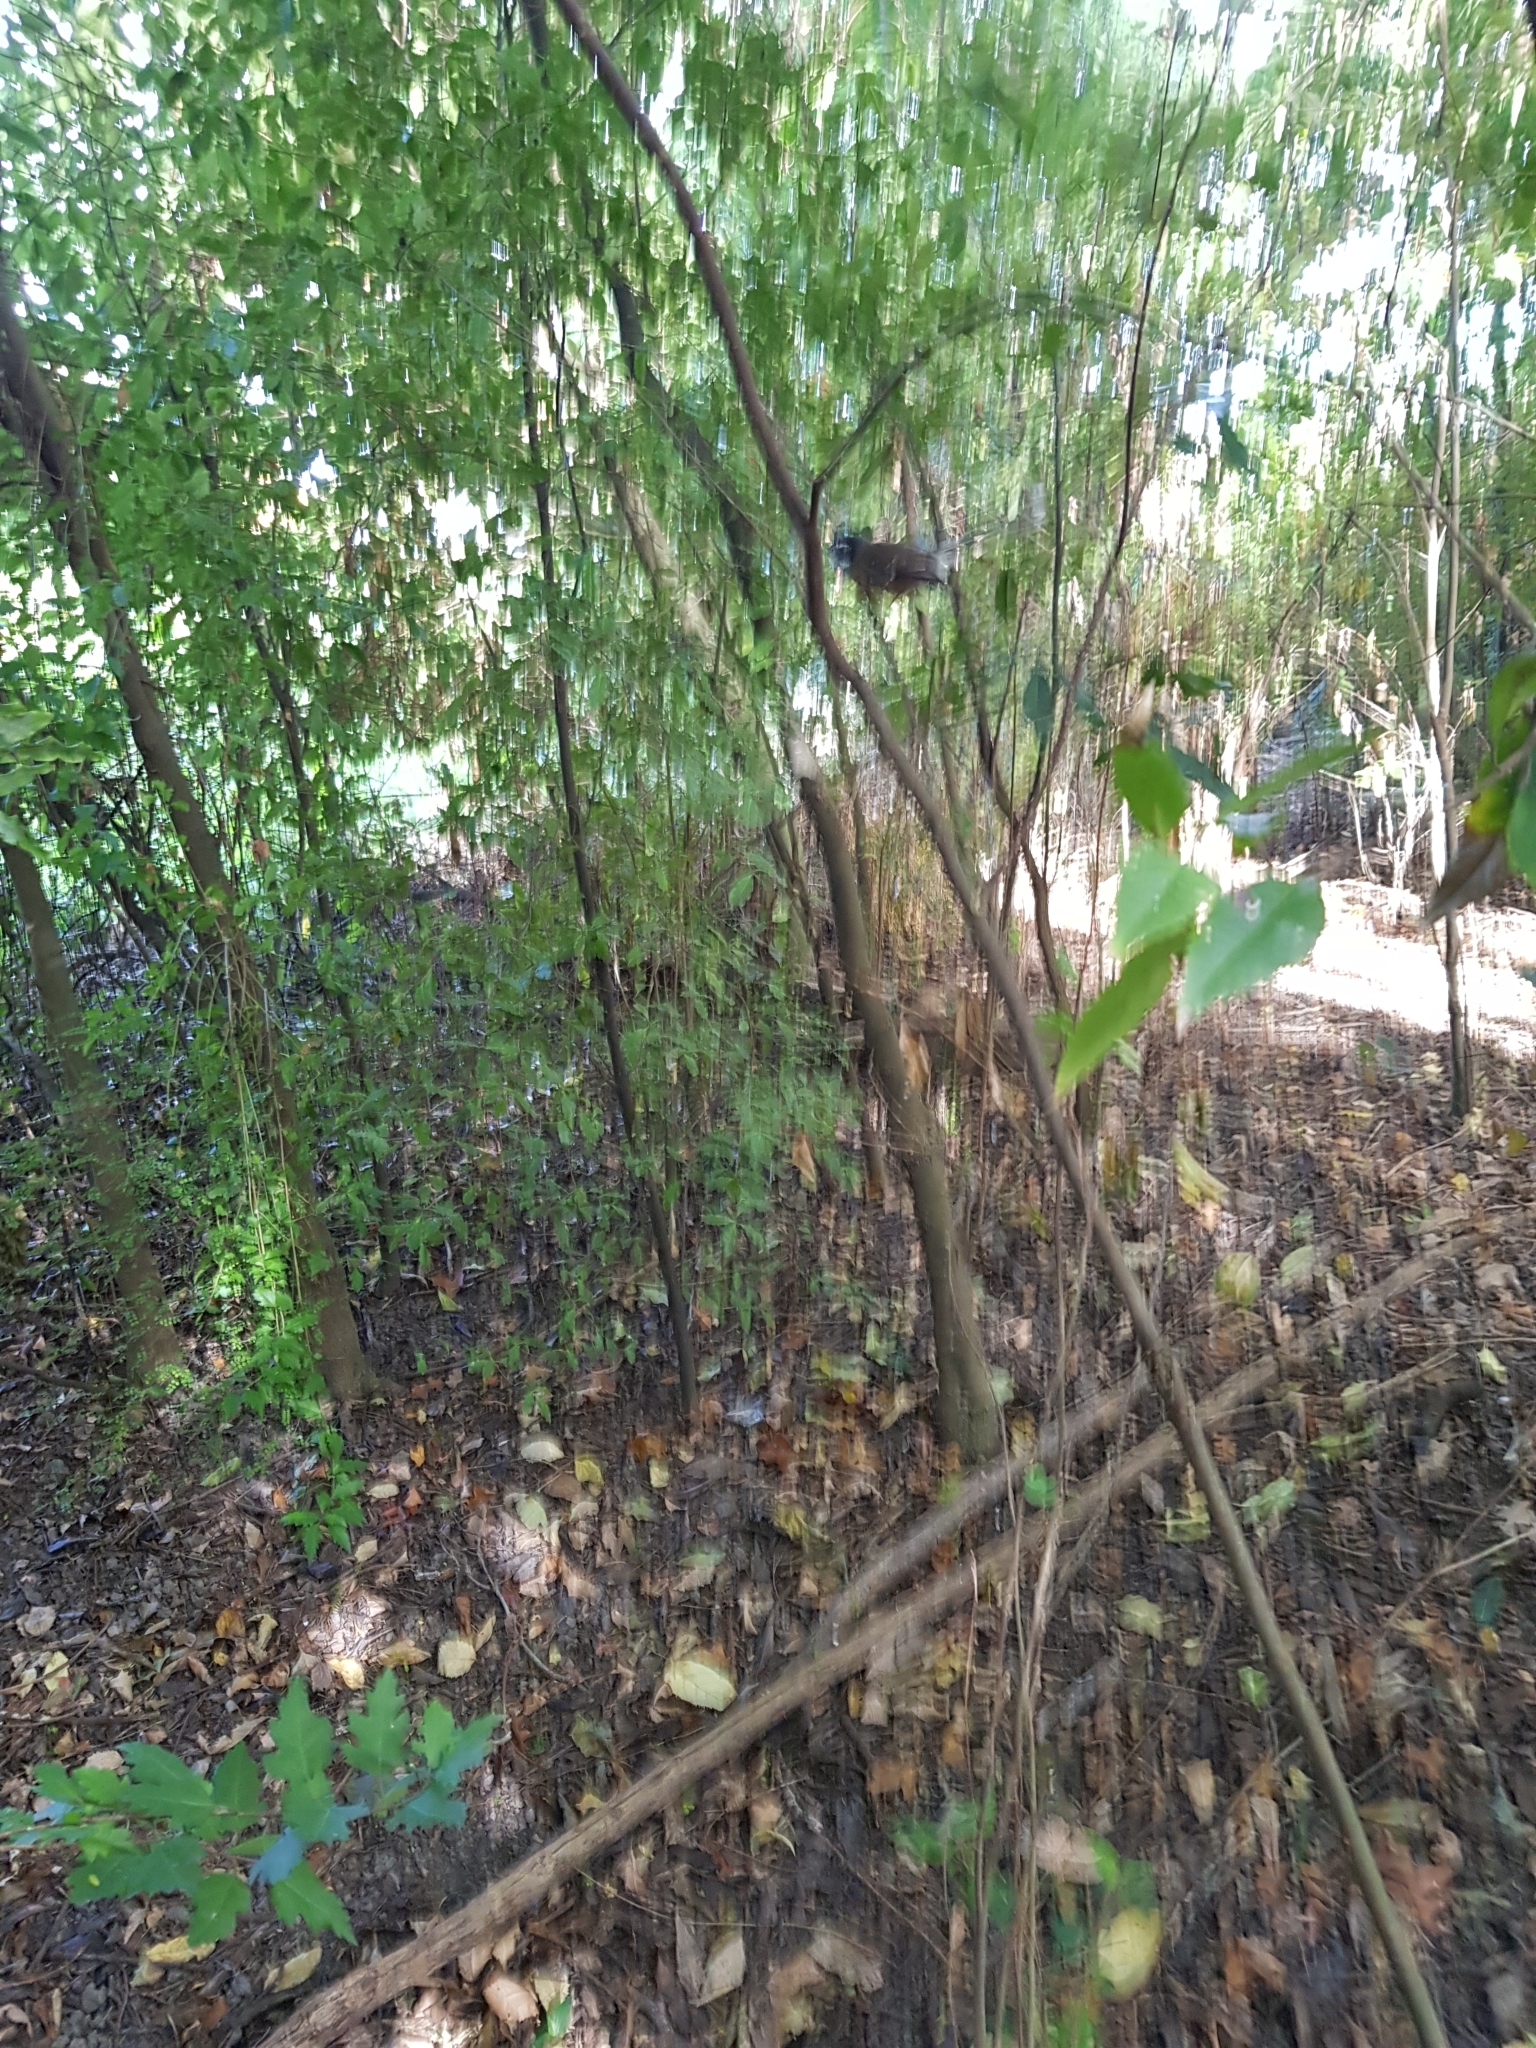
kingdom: Animalia
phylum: Chordata
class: Aves
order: Passeriformes
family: Rhipiduridae
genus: Rhipidura
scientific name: Rhipidura fuliginosa
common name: New zealand fantail
